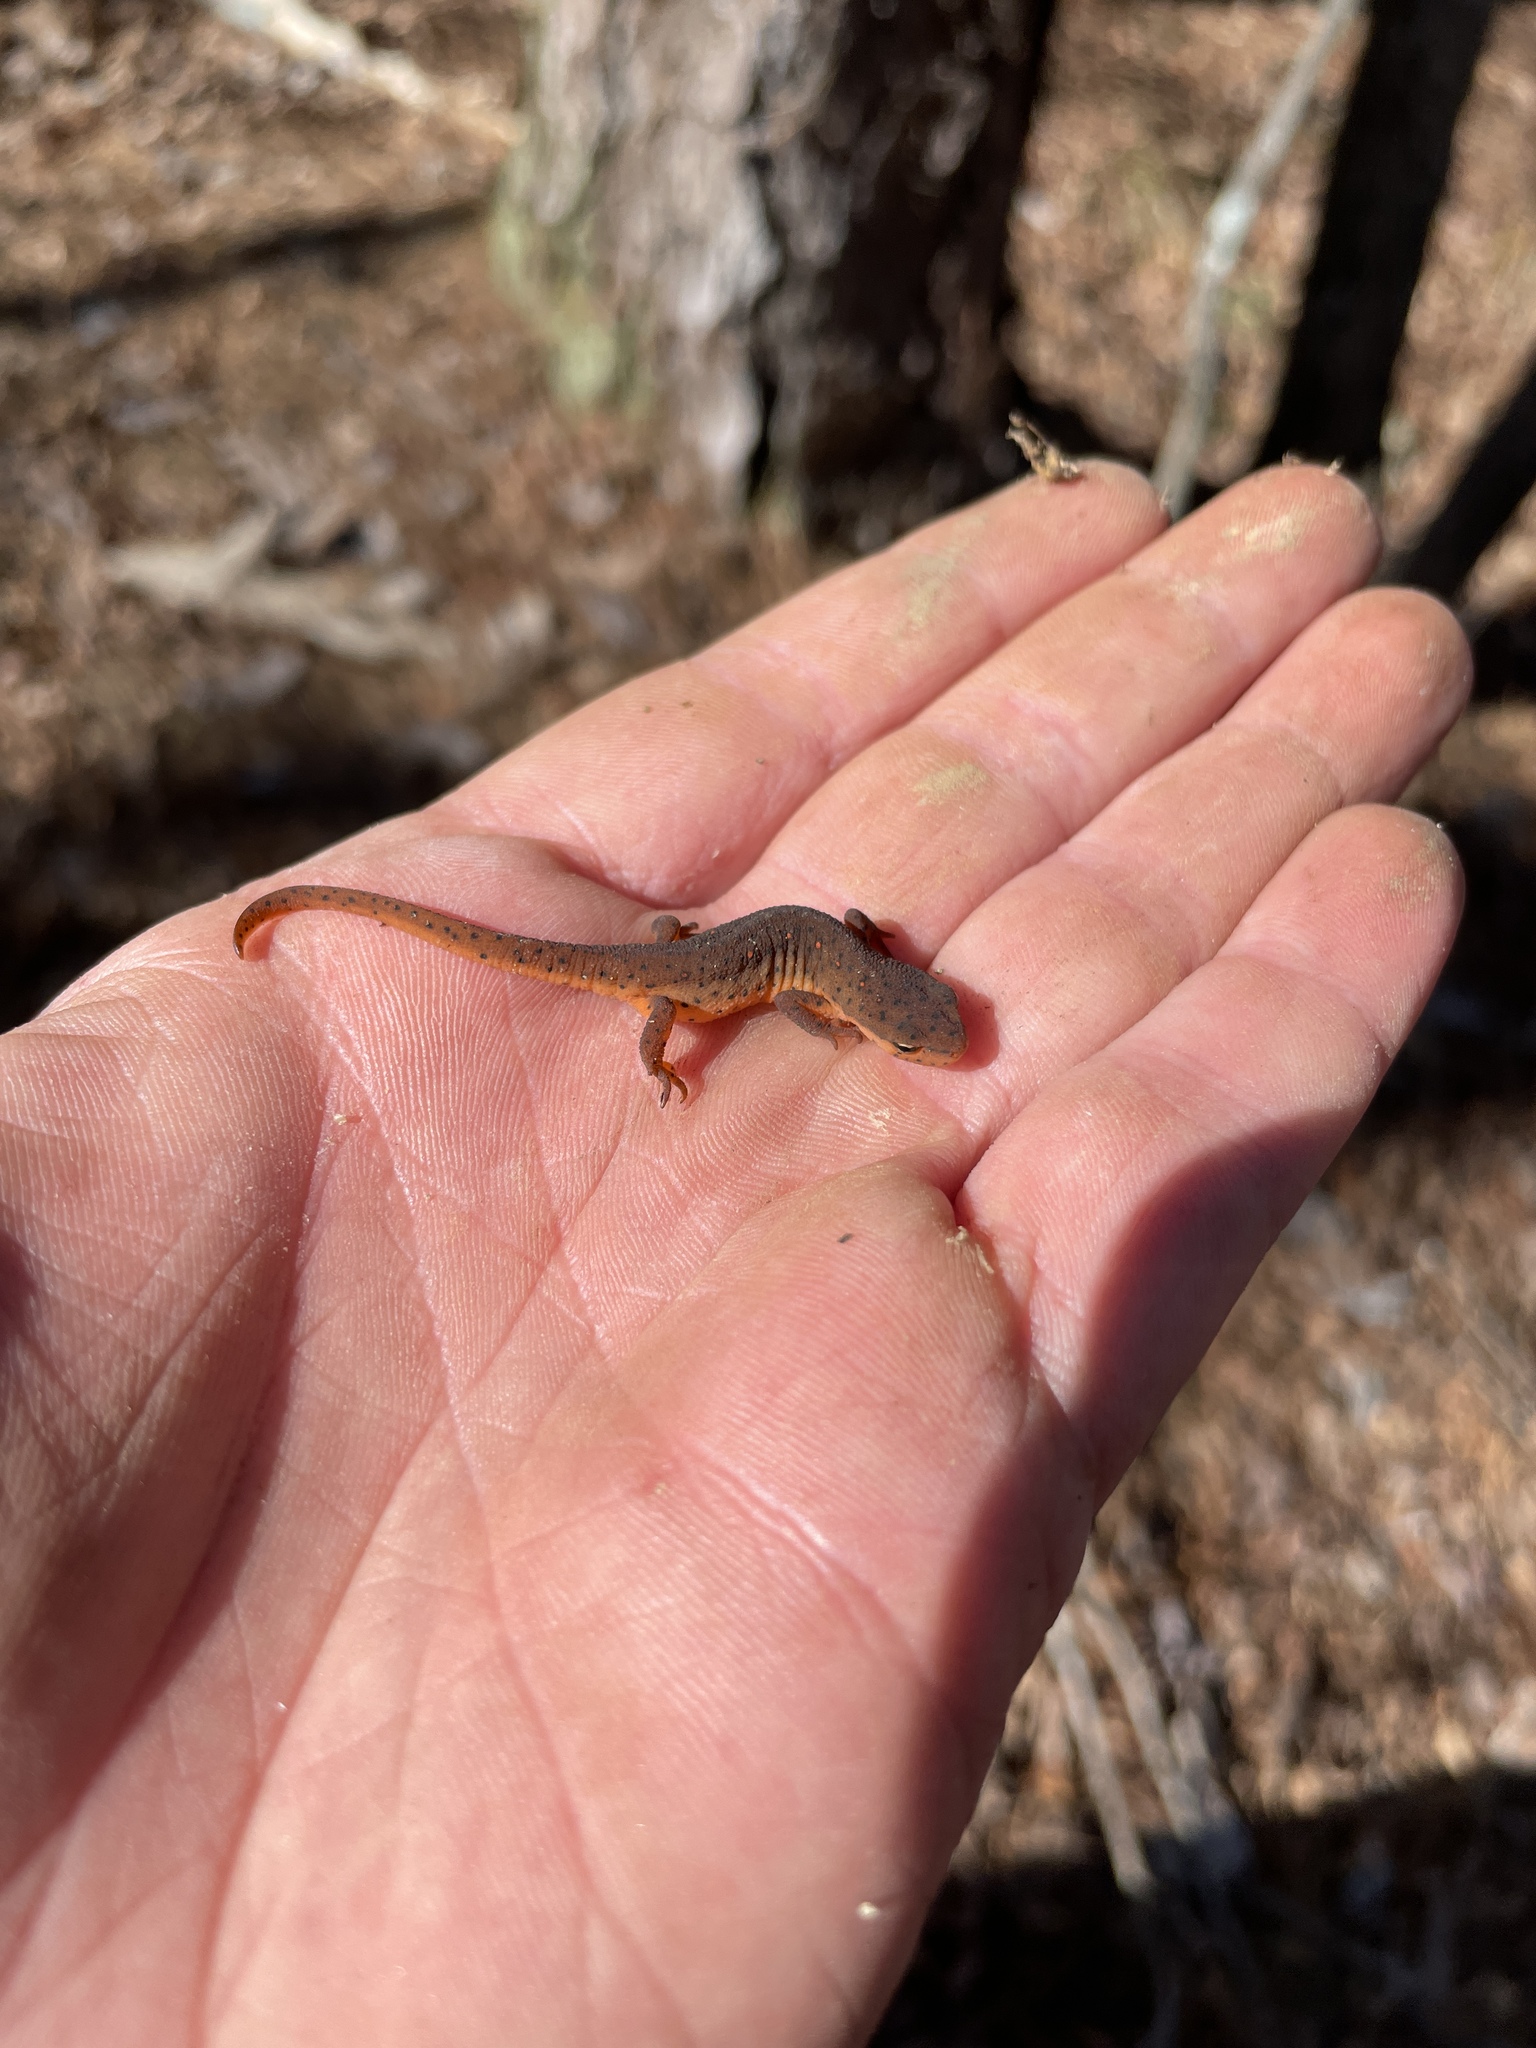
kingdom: Animalia
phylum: Chordata
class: Amphibia
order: Caudata
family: Salamandridae
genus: Notophthalmus
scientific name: Notophthalmus viridescens
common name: Eastern newt
